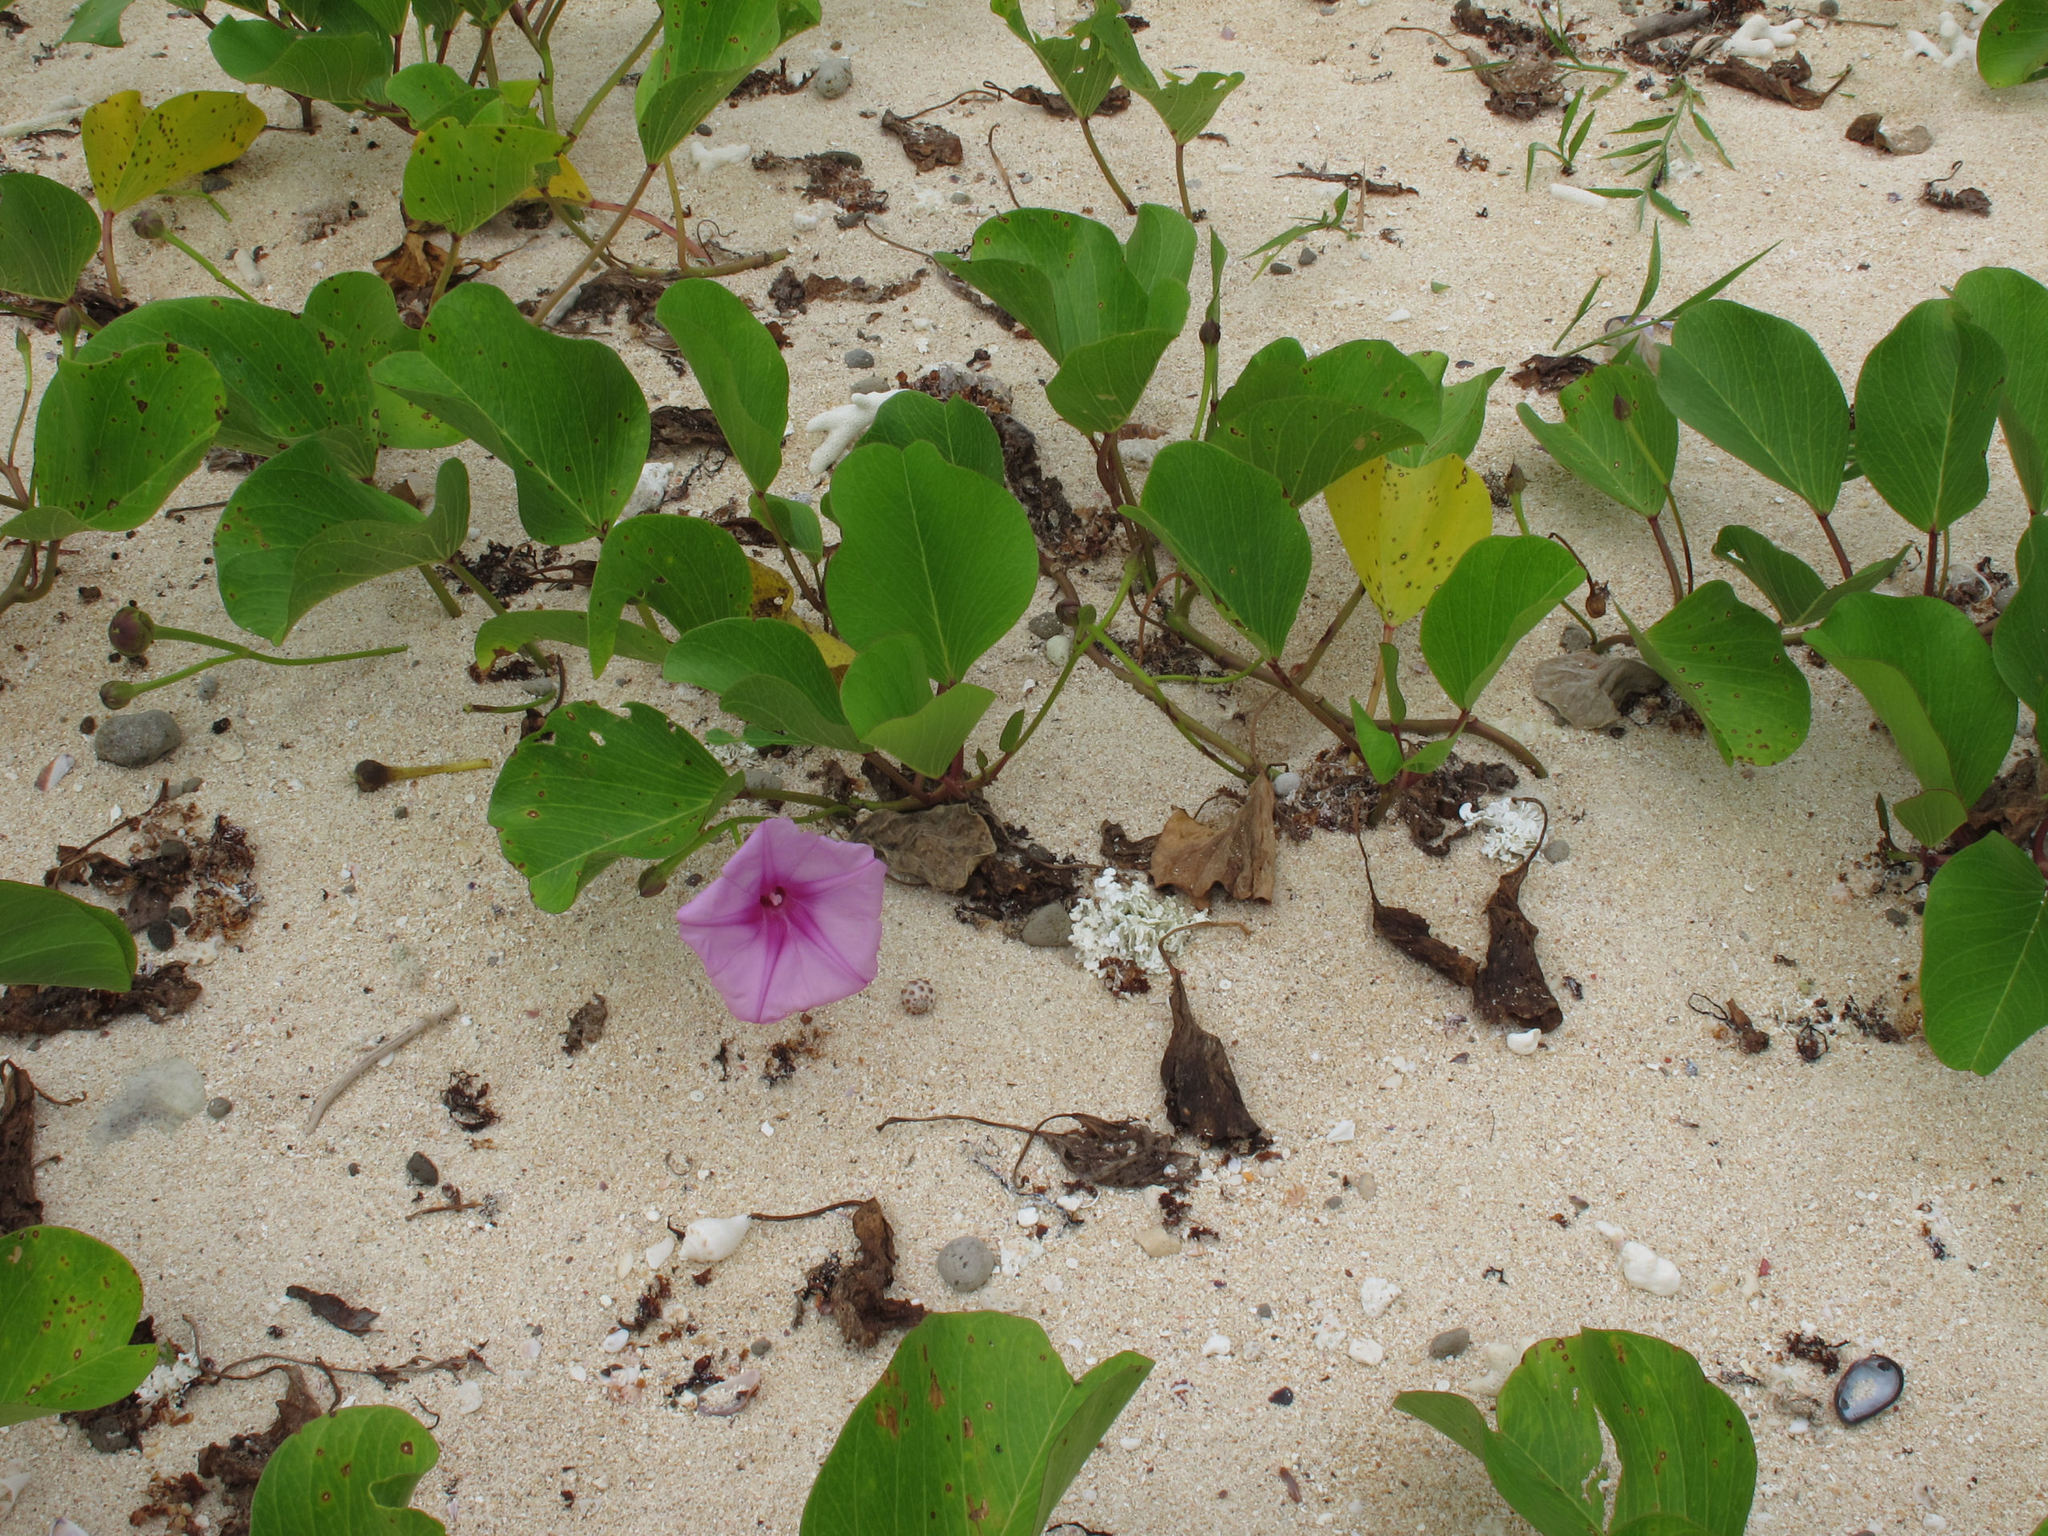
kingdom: Plantae
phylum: Tracheophyta
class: Magnoliopsida
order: Solanales
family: Convolvulaceae
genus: Ipomoea
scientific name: Ipomoea pes-caprae
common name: Beach morning glory
